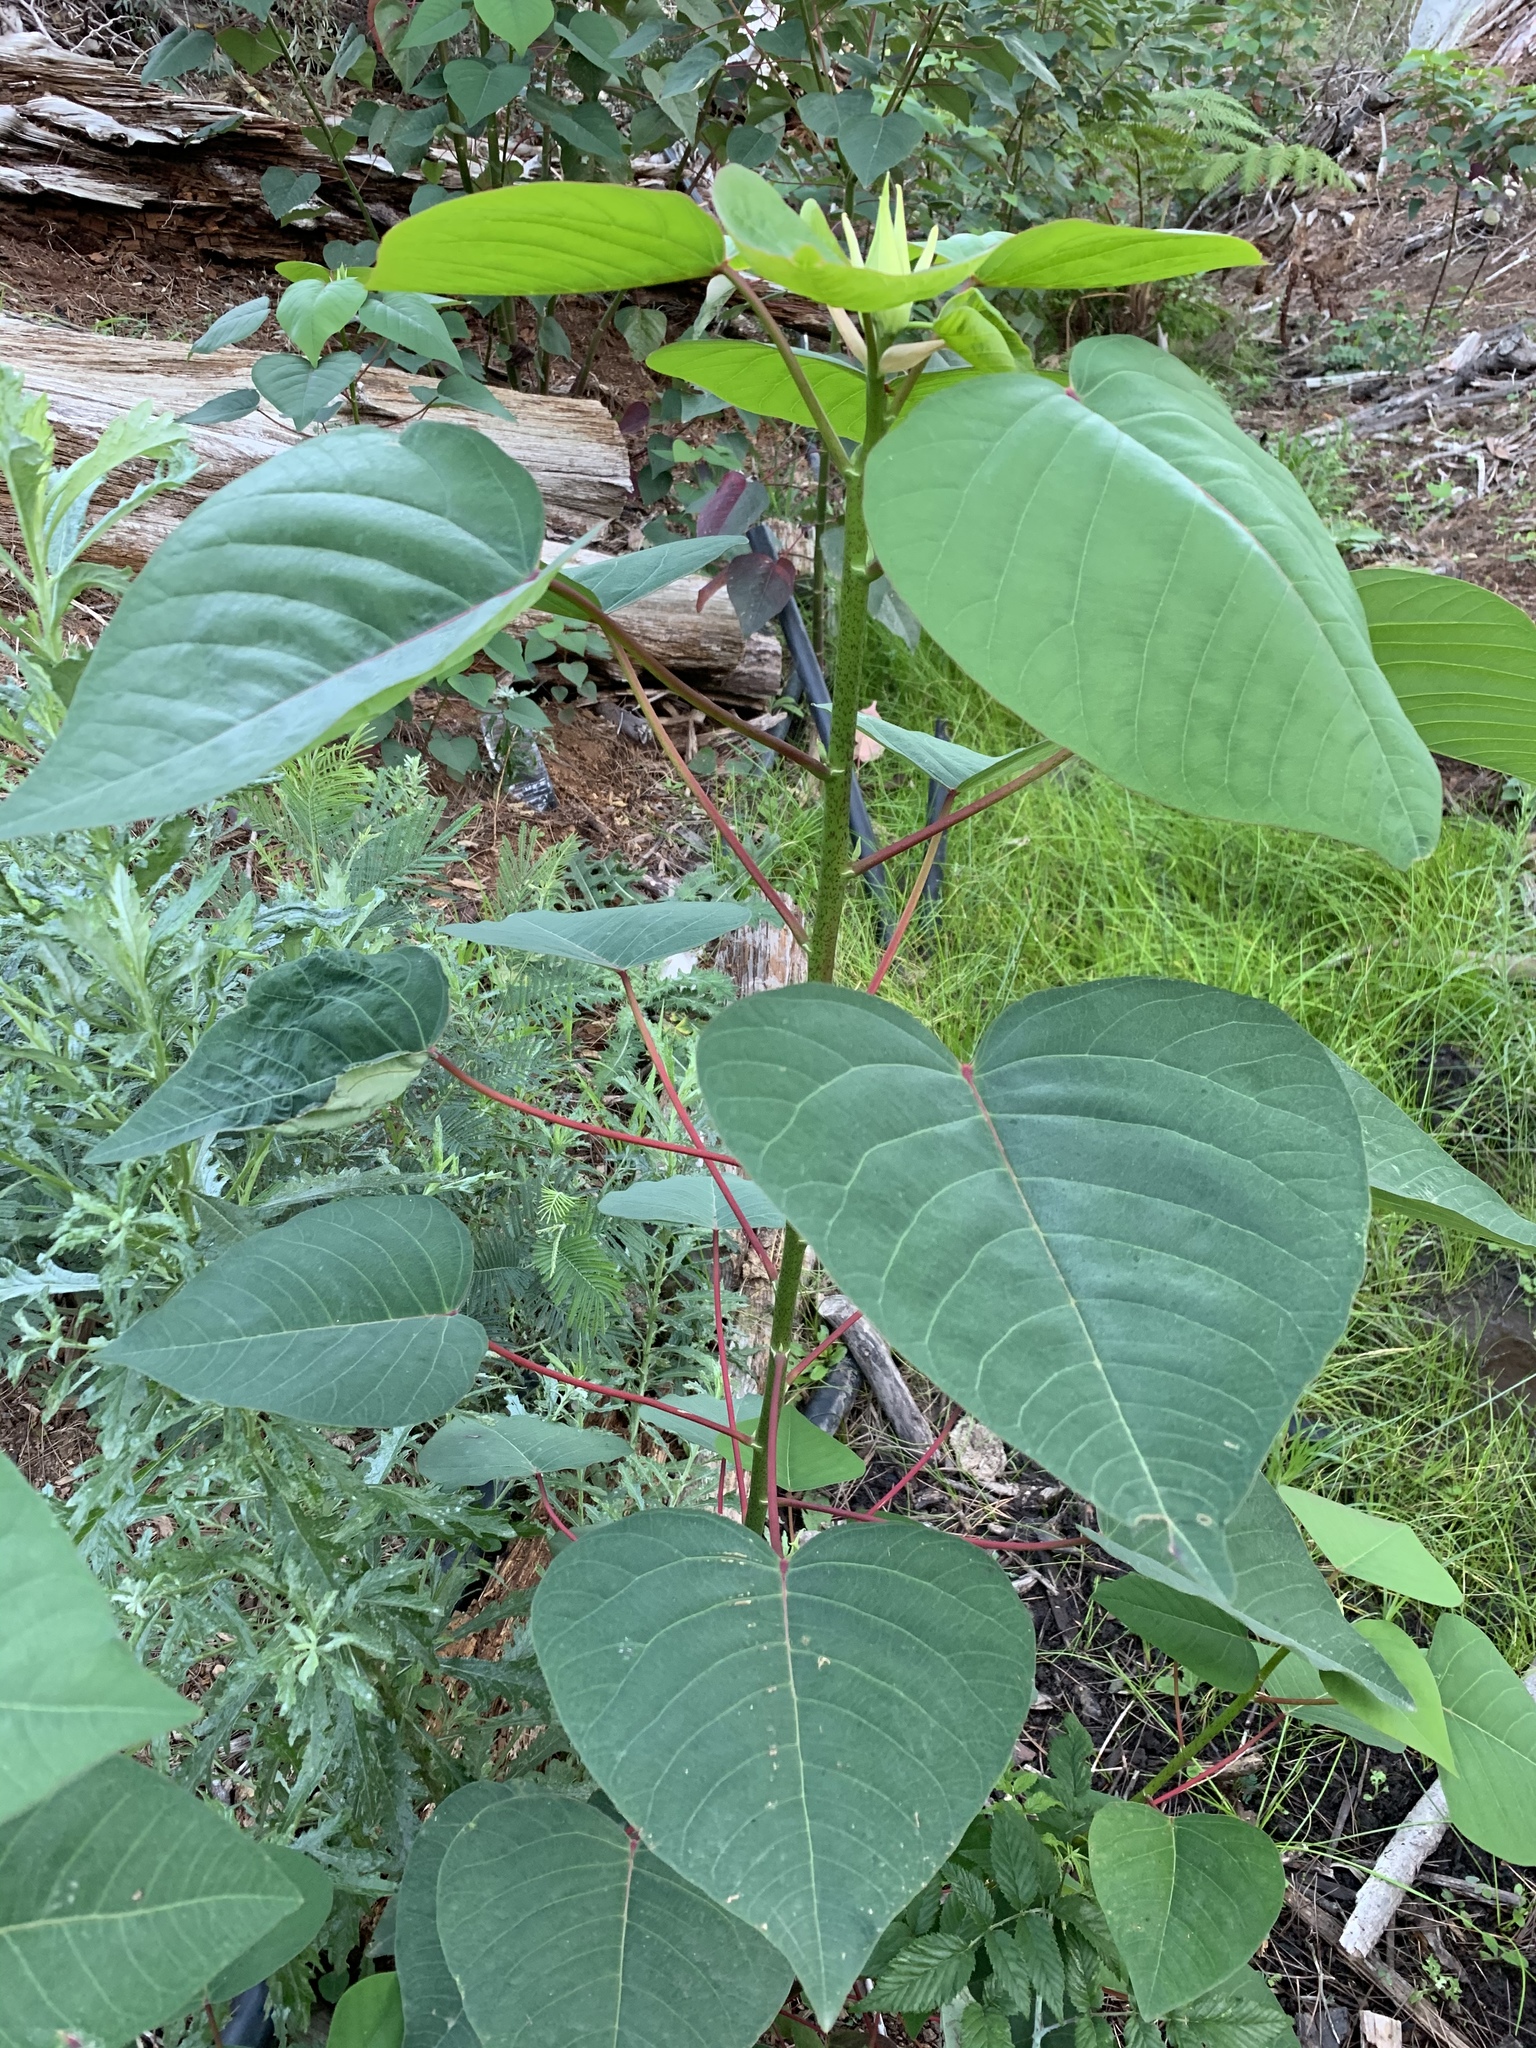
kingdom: Plantae
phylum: Tracheophyta
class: Magnoliopsida
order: Malpighiales
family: Euphorbiaceae
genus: Homalanthus
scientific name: Homalanthus populifolius
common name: Queensland poplar
